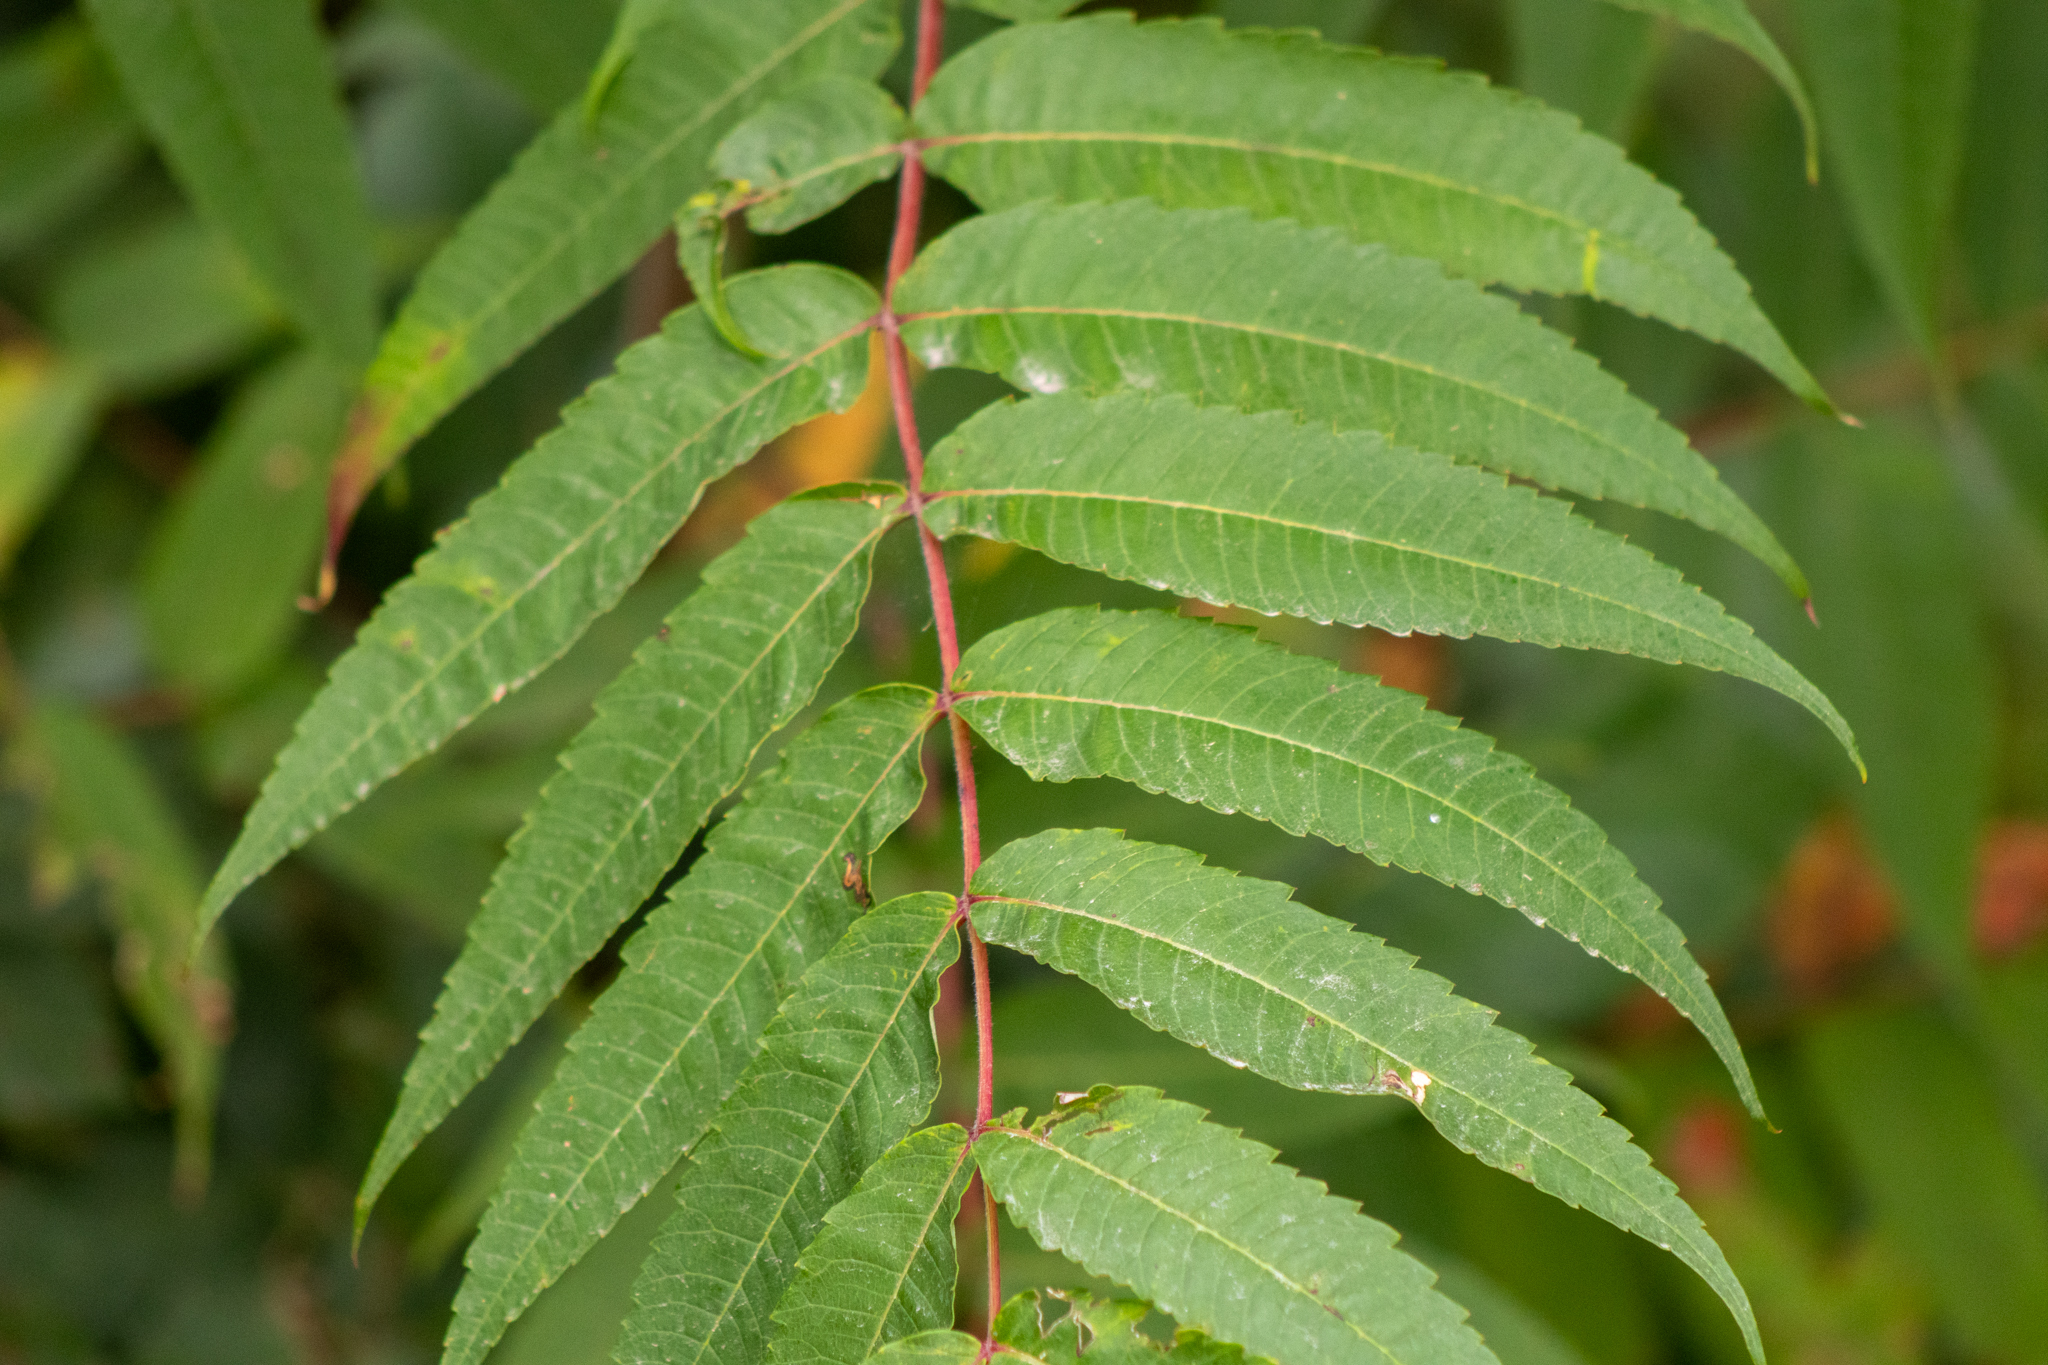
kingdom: Plantae
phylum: Tracheophyta
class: Magnoliopsida
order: Sapindales
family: Anacardiaceae
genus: Rhus
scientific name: Rhus typhina
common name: Staghorn sumac
